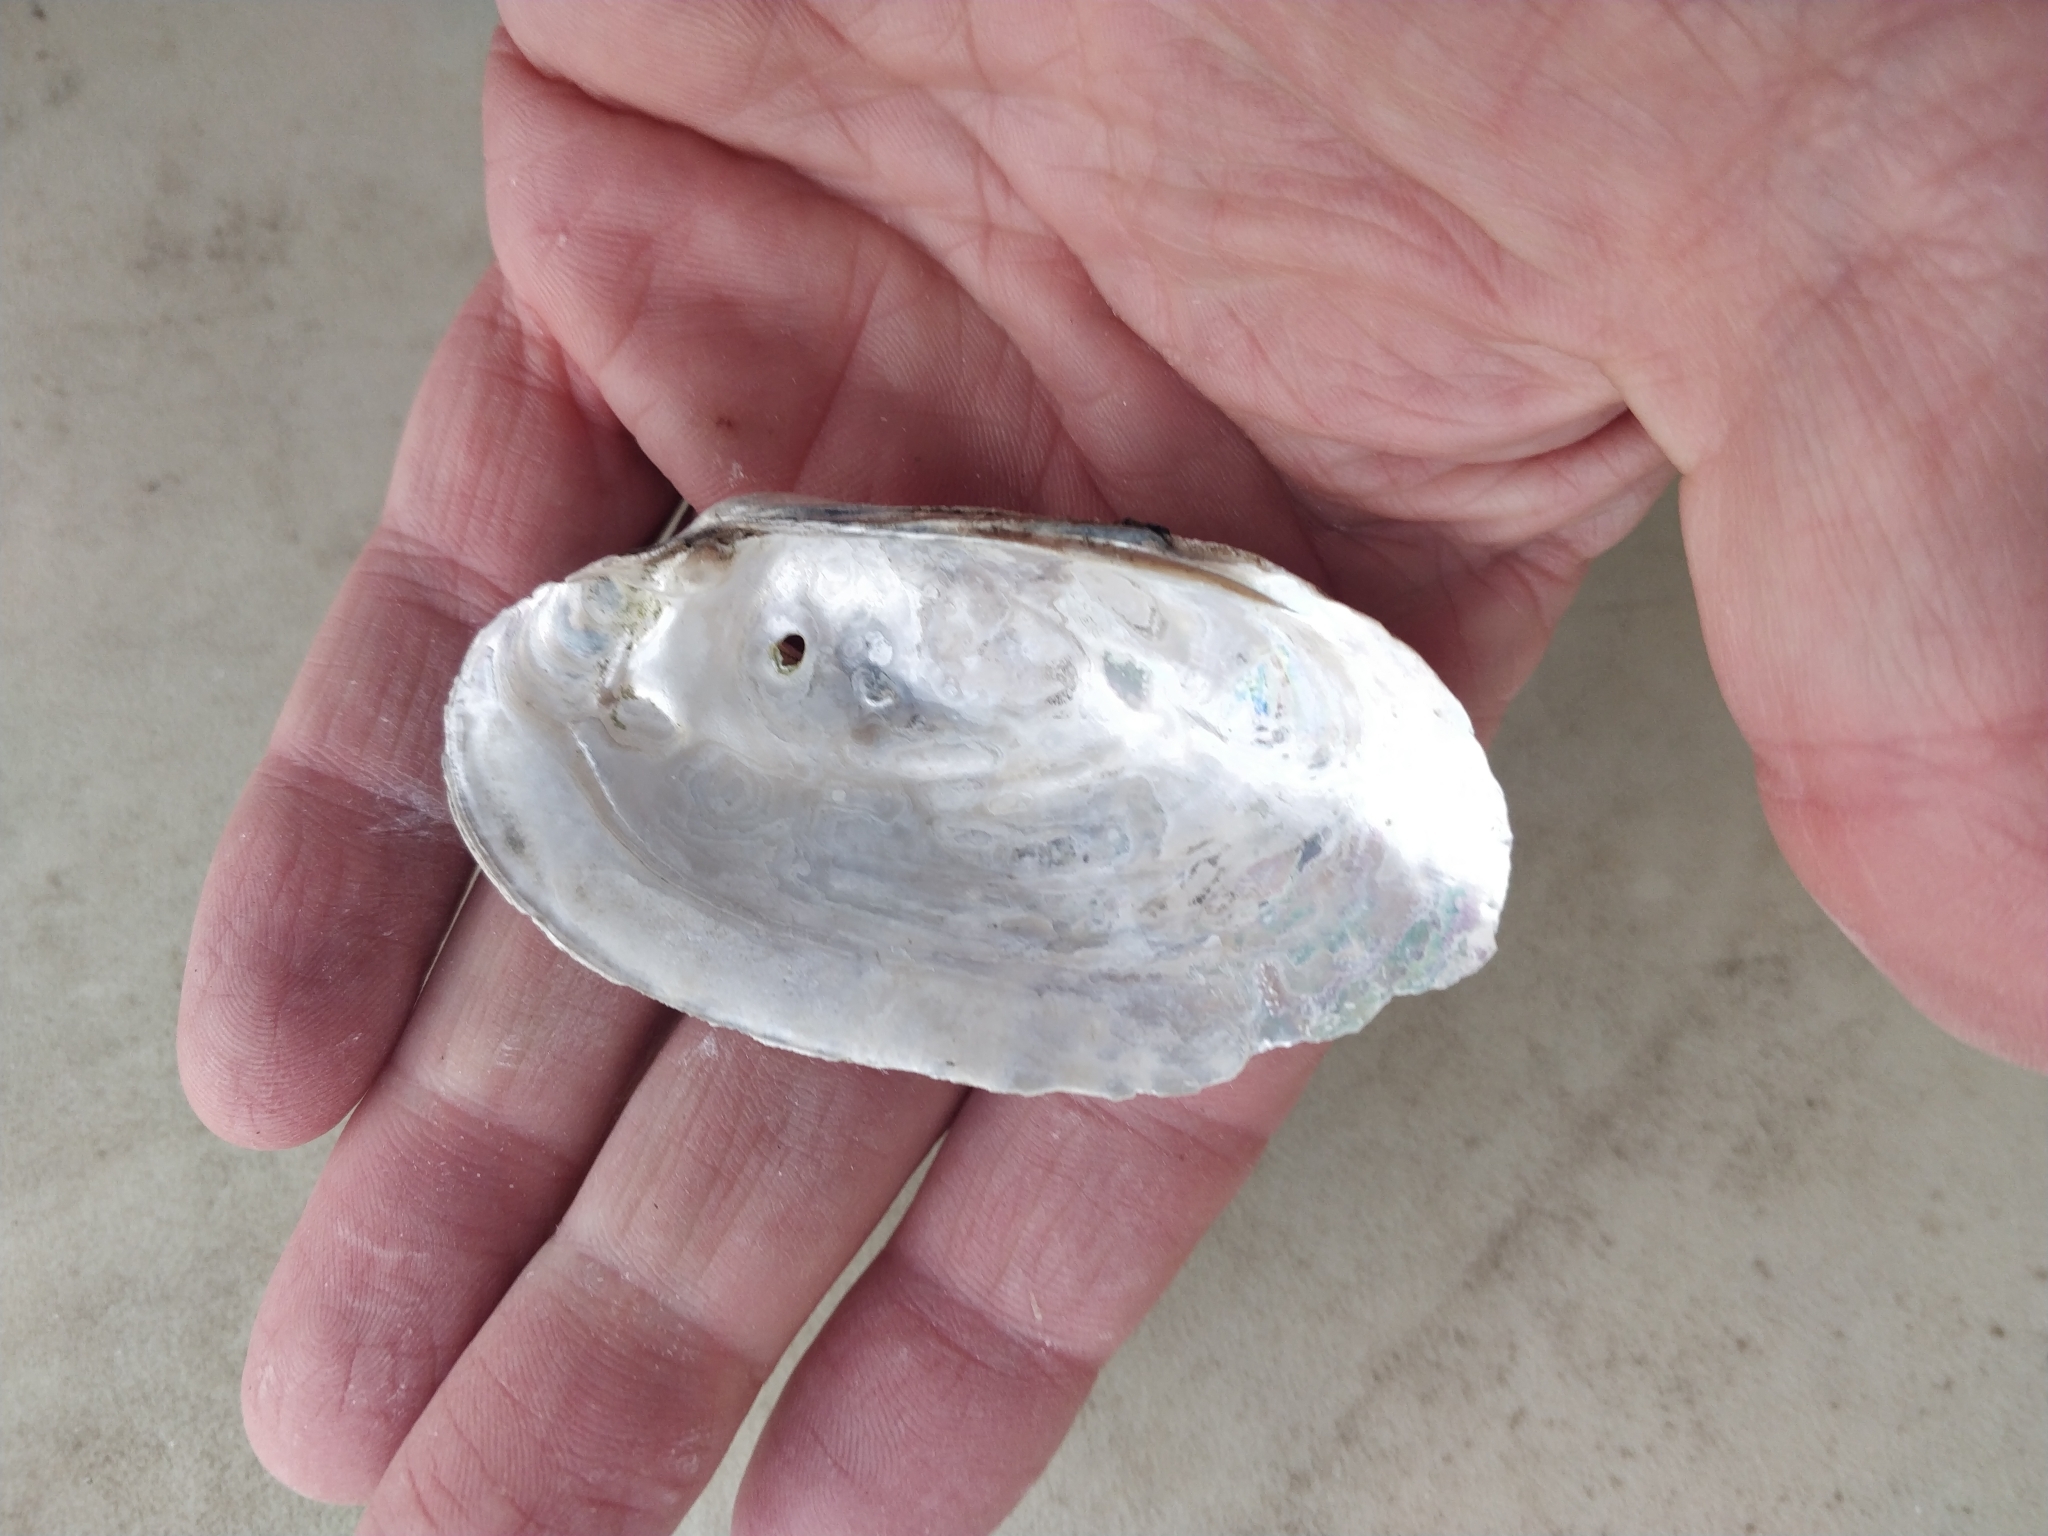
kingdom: Animalia
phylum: Mollusca
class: Bivalvia
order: Unionida
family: Unionidae
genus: Lampsilis
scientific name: Lampsilis siliquoidea
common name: Fatmucket
